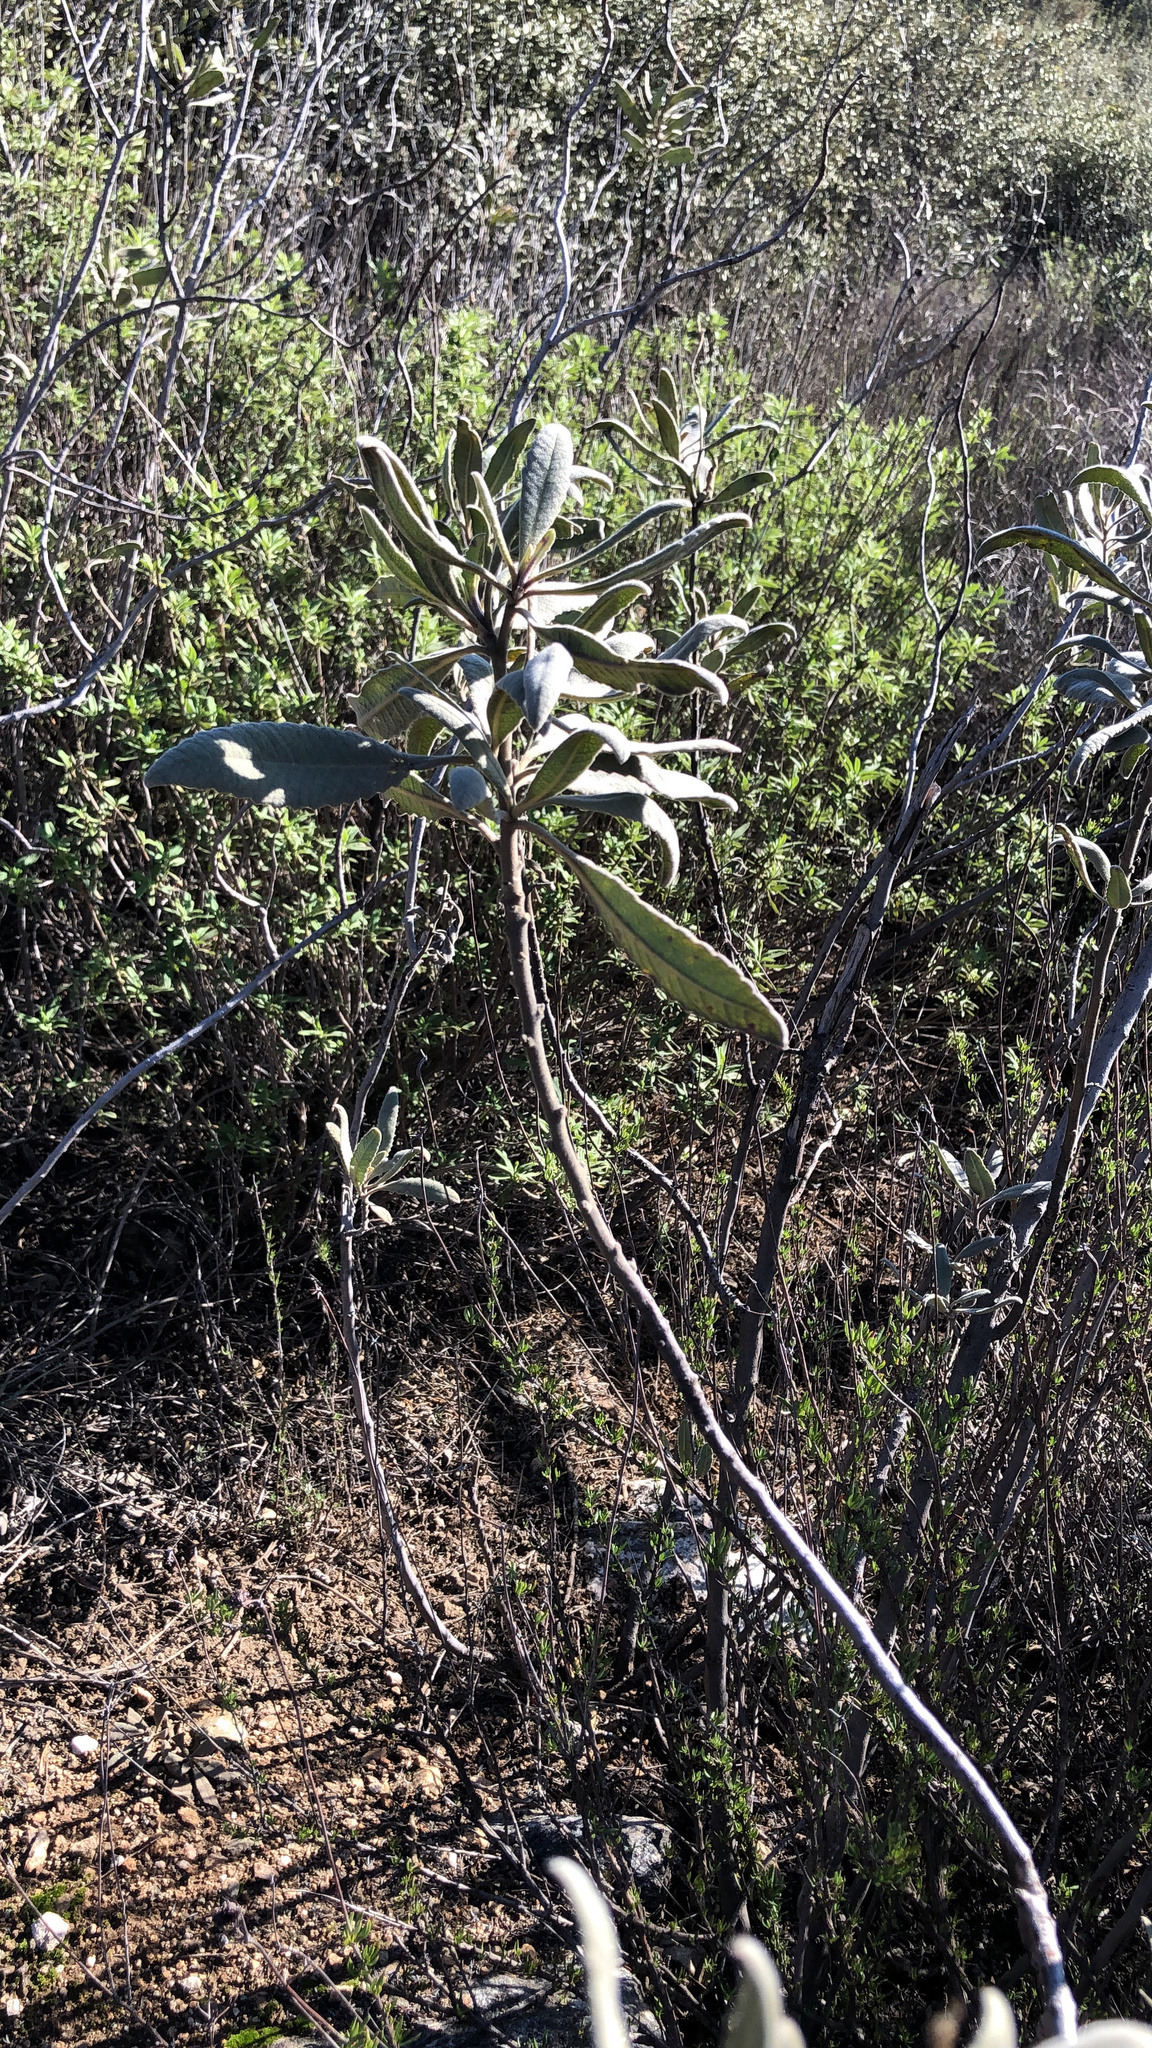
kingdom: Plantae
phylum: Tracheophyta
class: Magnoliopsida
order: Boraginales
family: Namaceae
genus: Eriodictyon
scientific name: Eriodictyon crassifolium
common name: Thick-leaf yerba-santa
